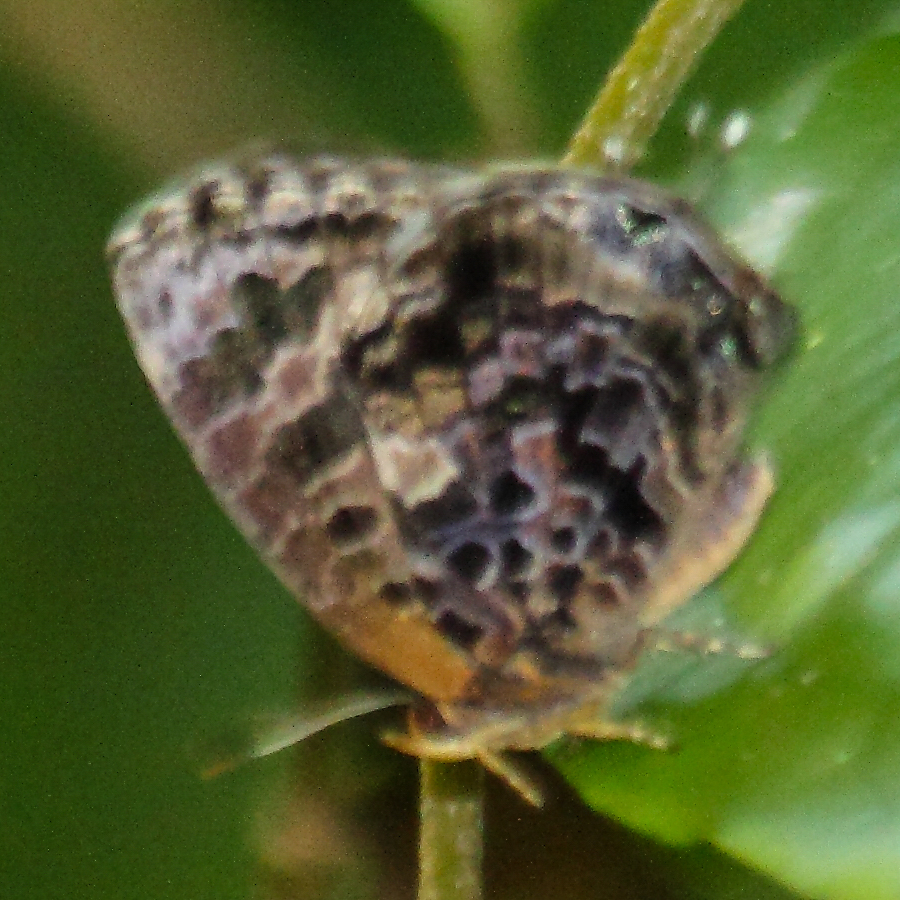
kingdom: Animalia
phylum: Arthropoda
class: Insecta
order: Lepidoptera
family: Lycaenidae
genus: Arhopala
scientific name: Arhopala abseus
